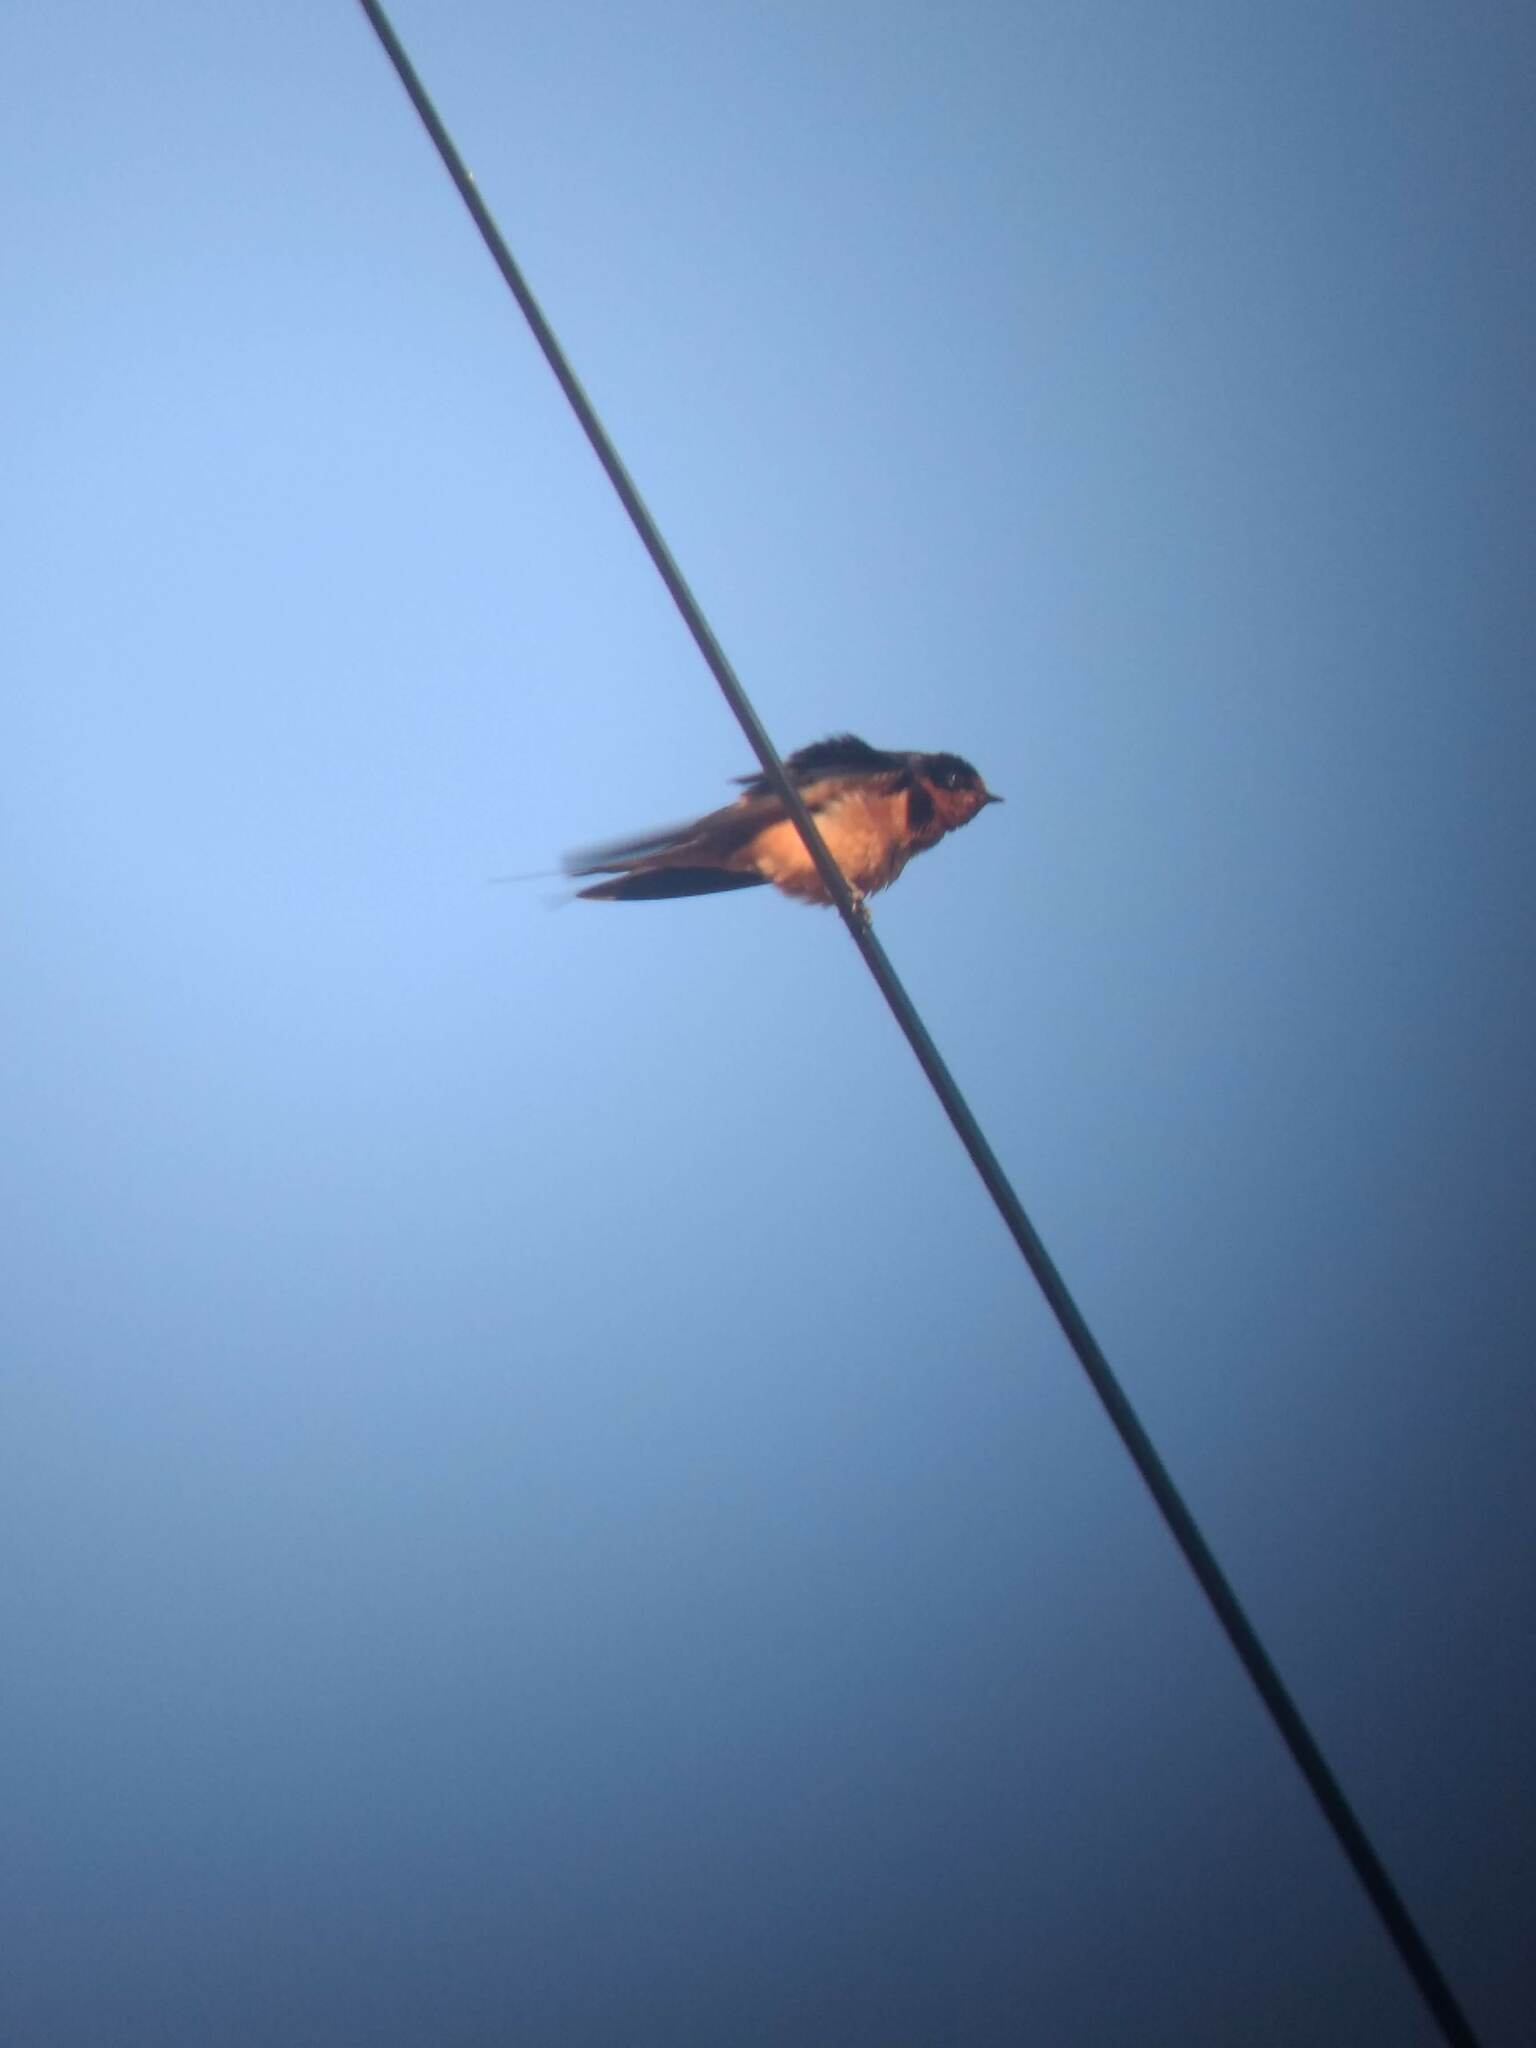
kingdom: Animalia
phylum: Chordata
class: Aves
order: Passeriformes
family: Hirundinidae
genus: Hirundo
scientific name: Hirundo rustica
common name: Barn swallow
